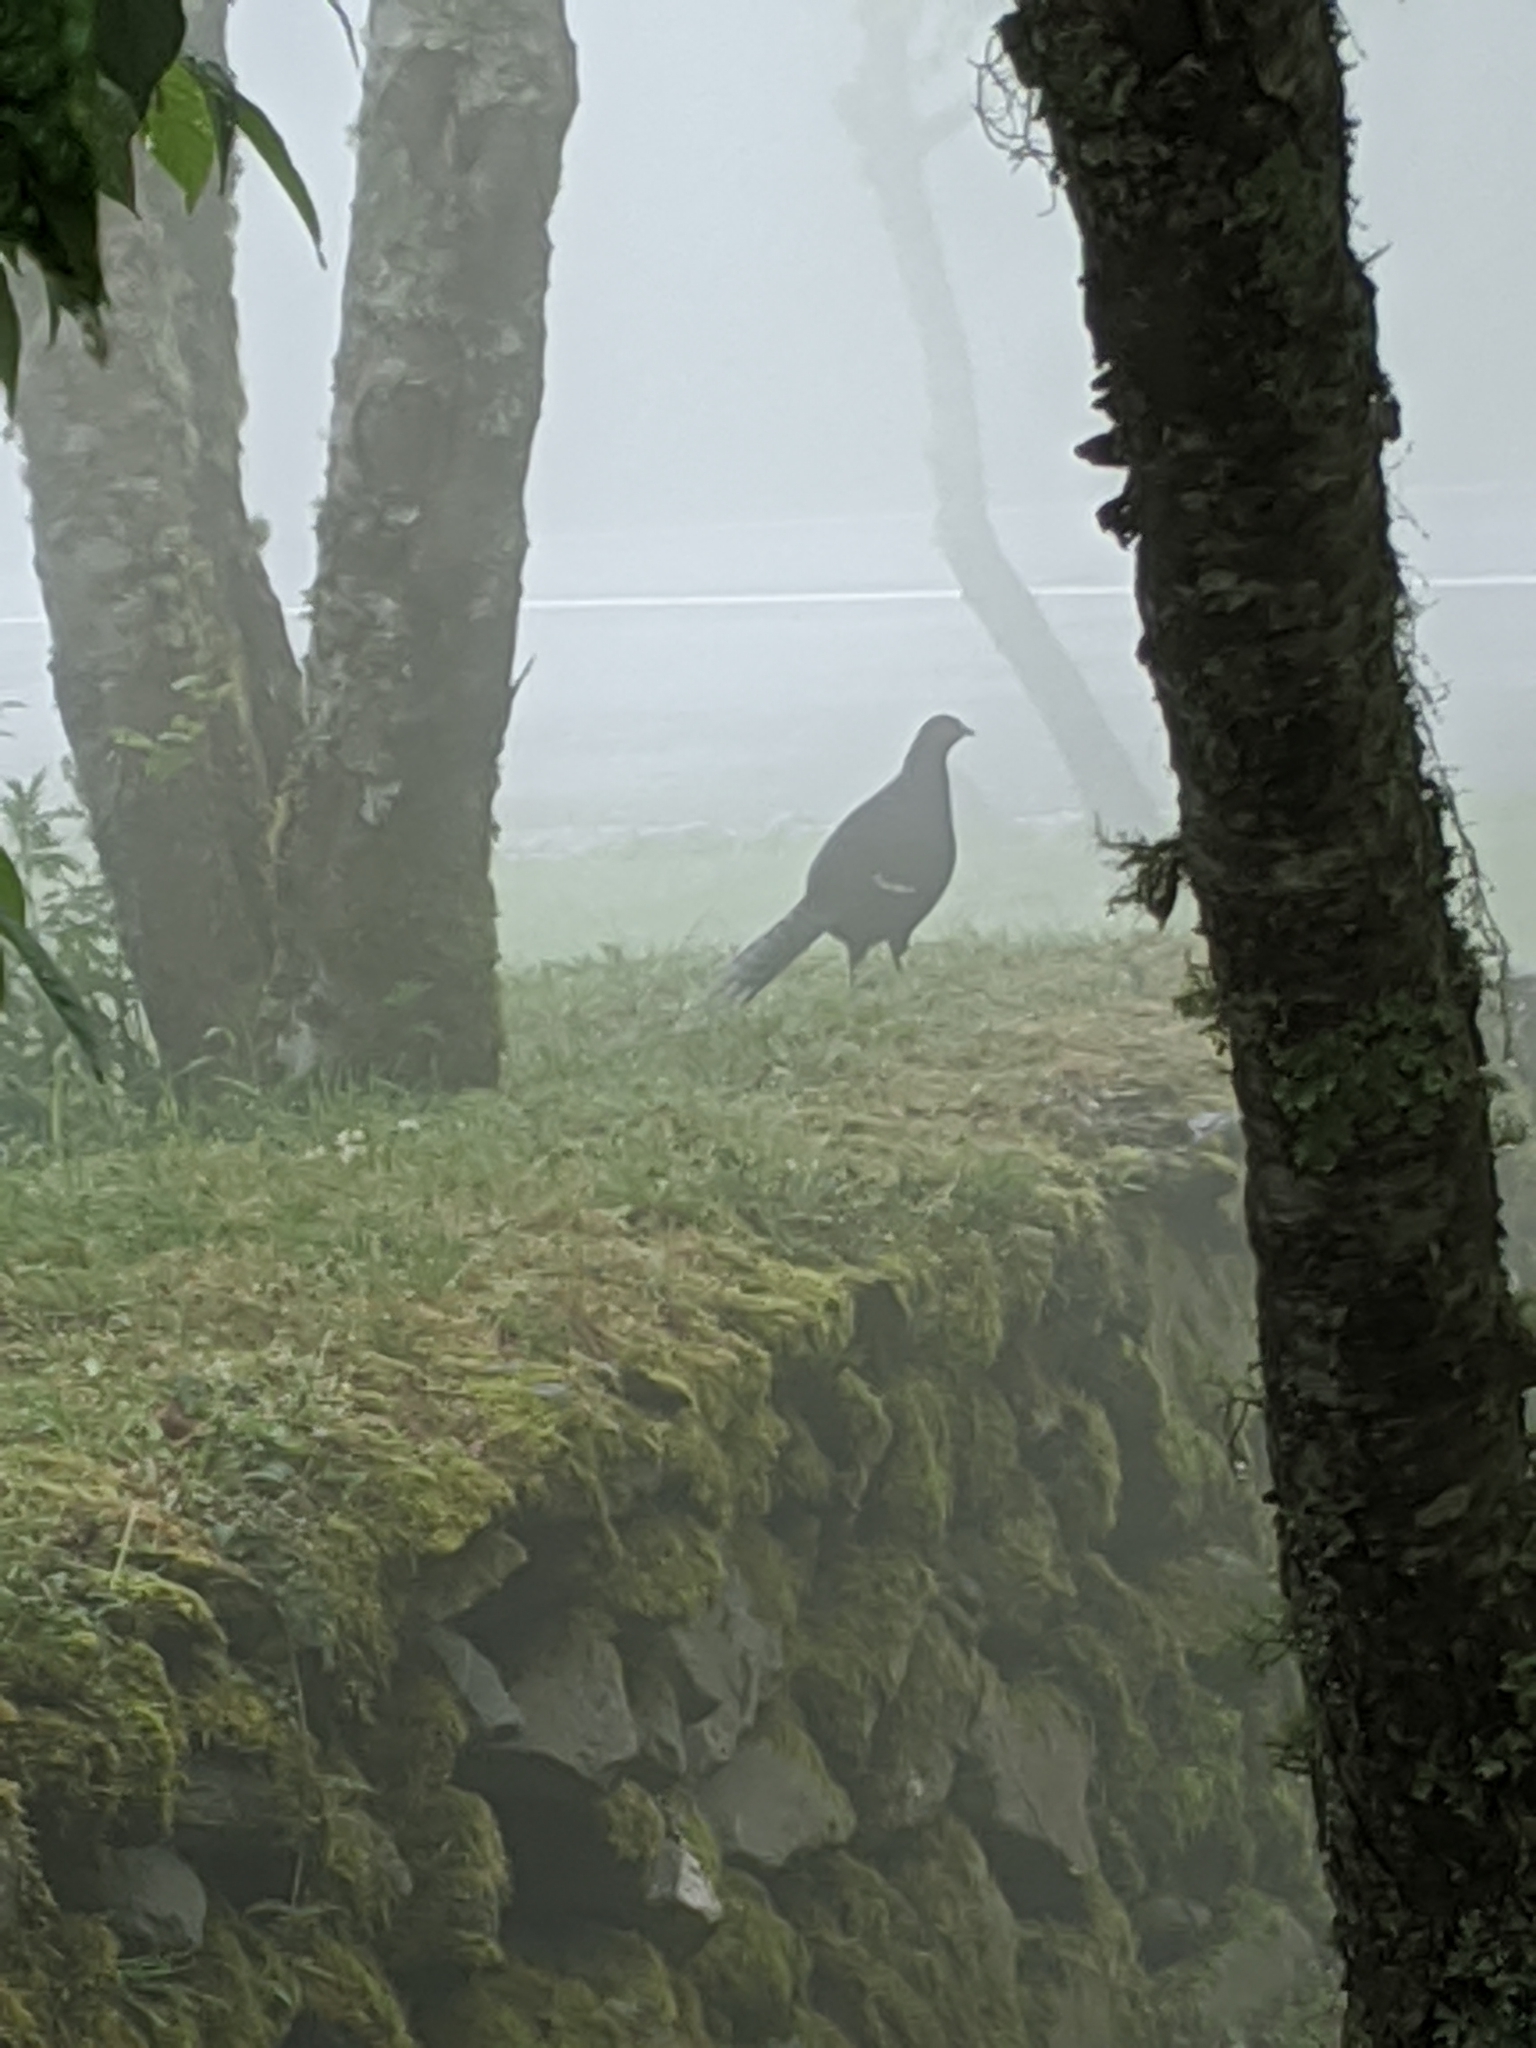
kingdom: Animalia
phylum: Chordata
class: Aves
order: Galliformes
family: Phasianidae
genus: Syrmaticus
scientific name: Syrmaticus mikado
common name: Mikado pheasant
